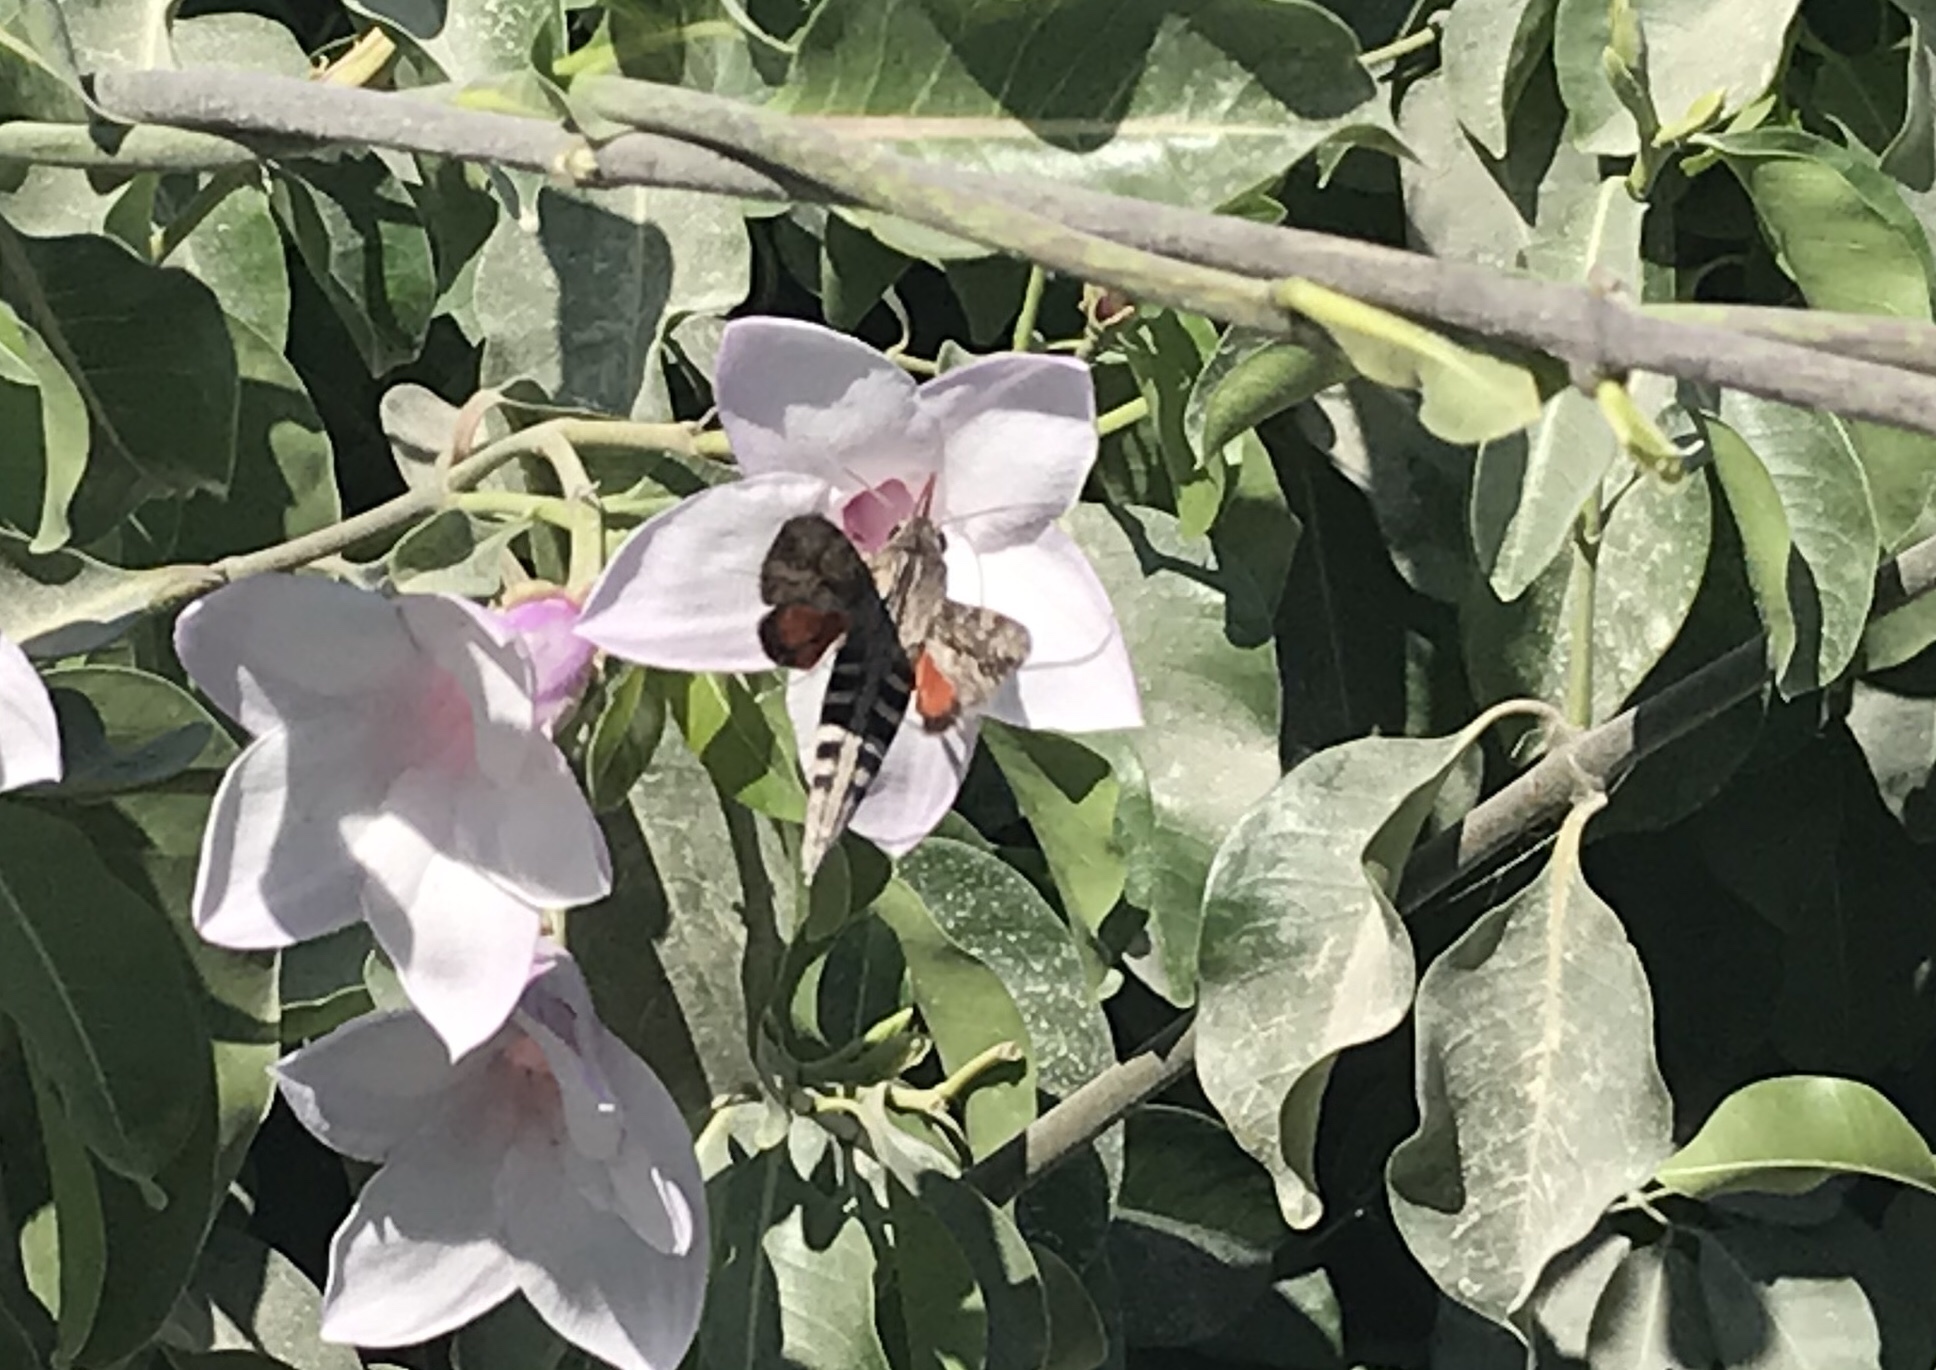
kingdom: Animalia
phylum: Arthropoda
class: Insecta
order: Lepidoptera
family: Sphingidae
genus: Erinnyis
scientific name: Erinnyis ello
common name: Ello sphinx
